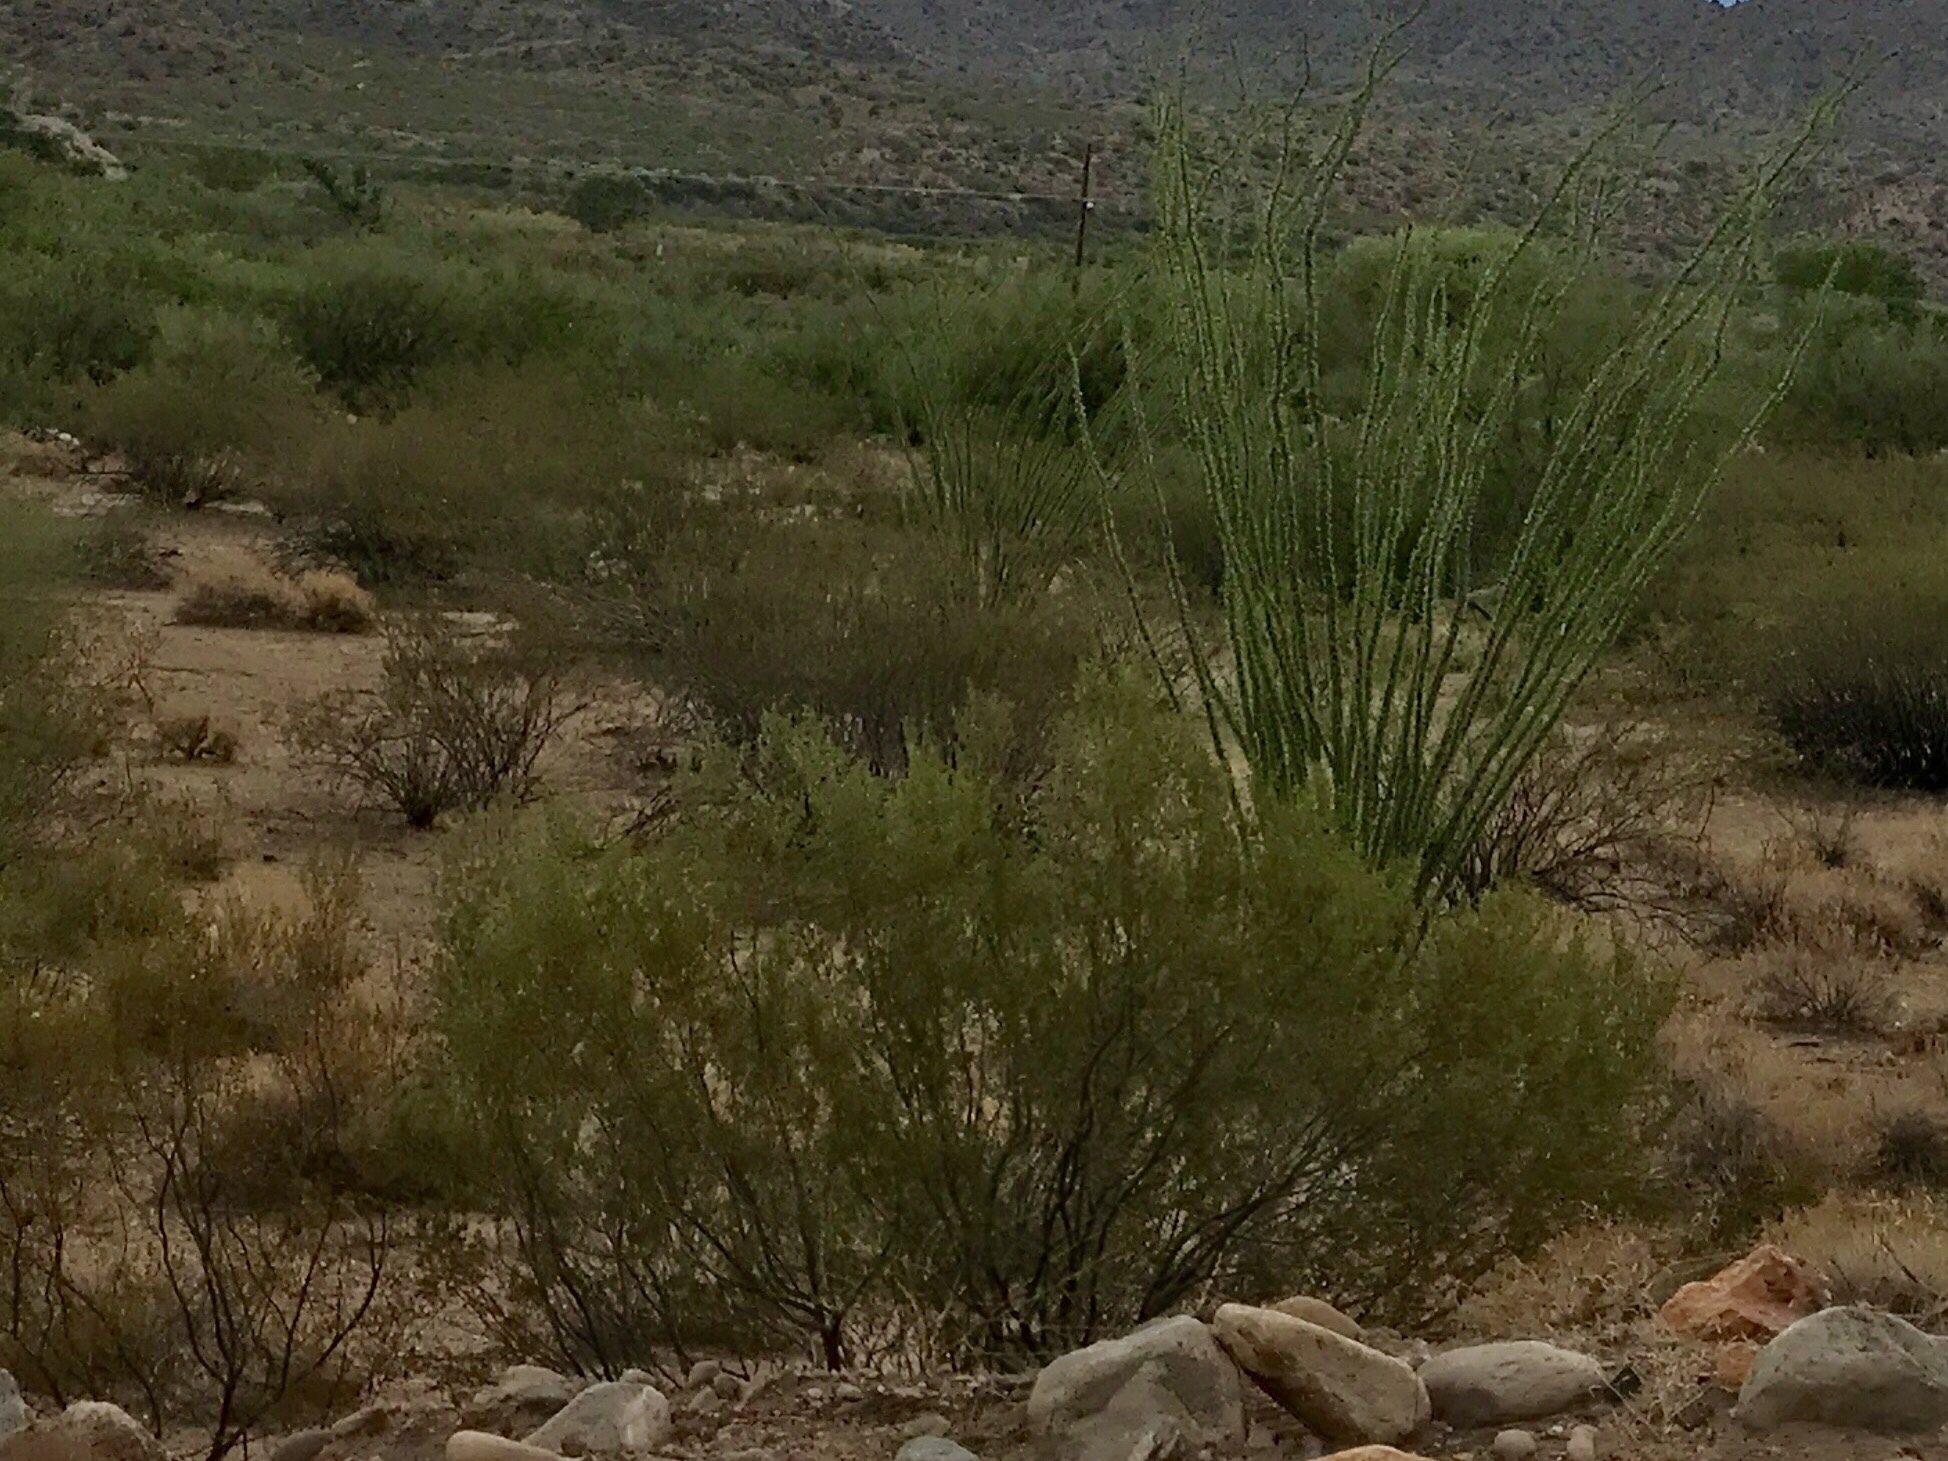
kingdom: Plantae
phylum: Tracheophyta
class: Magnoliopsida
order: Zygophyllales
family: Zygophyllaceae
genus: Larrea
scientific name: Larrea tridentata
